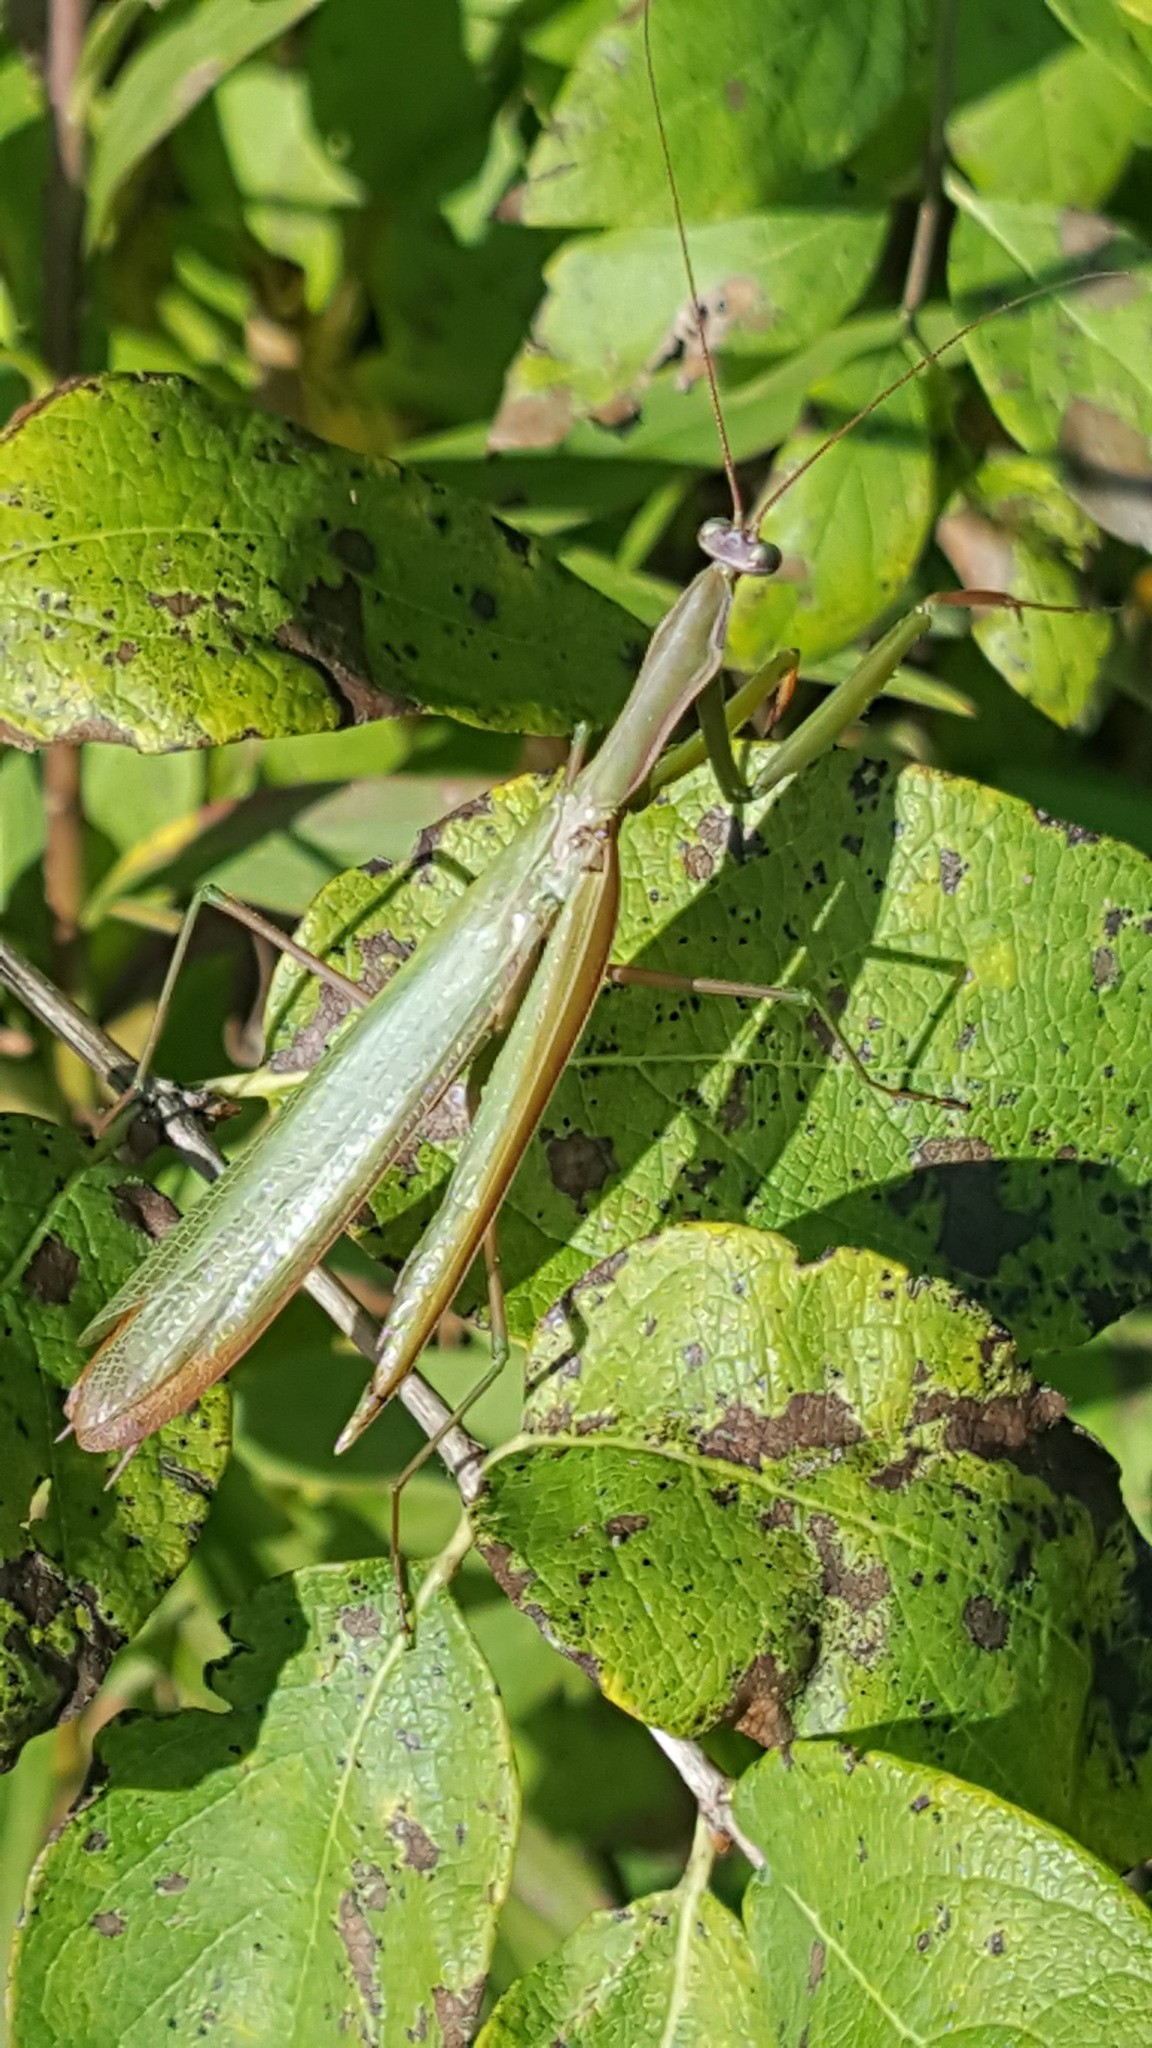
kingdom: Animalia
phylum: Arthropoda
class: Insecta
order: Mantodea
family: Mantidae
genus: Mantis
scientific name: Mantis religiosa
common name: Praying mantis
